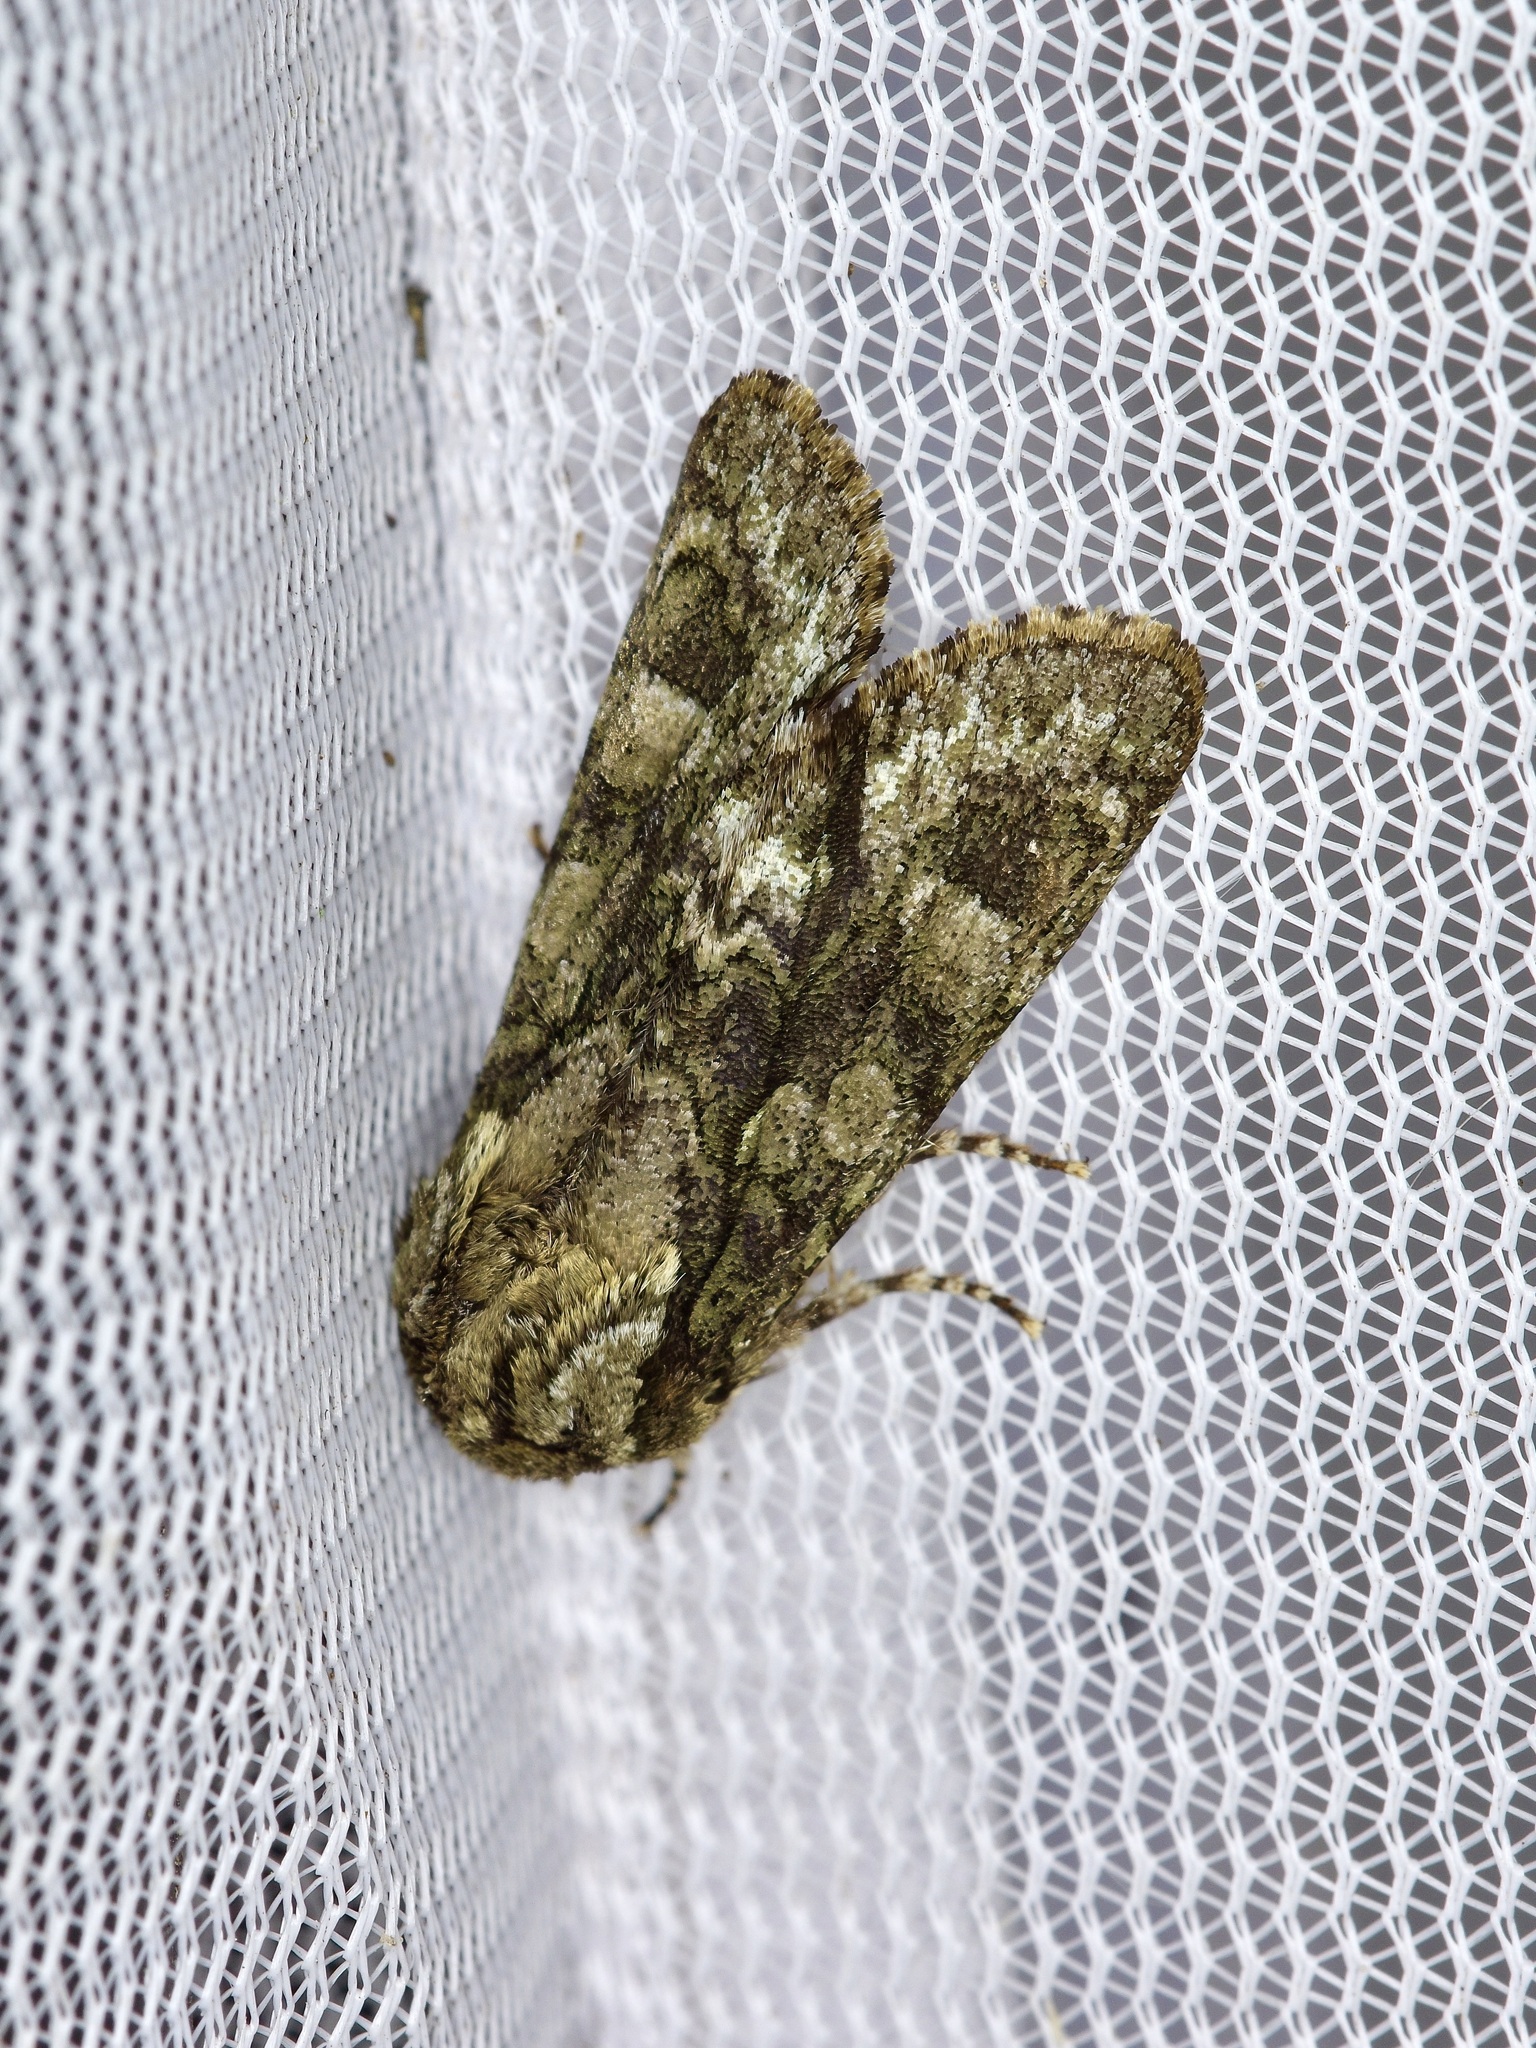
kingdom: Animalia
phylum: Arthropoda
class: Insecta
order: Lepidoptera
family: Noctuidae
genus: Psaphida
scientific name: Psaphida resumens
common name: Figure-eight sallow
